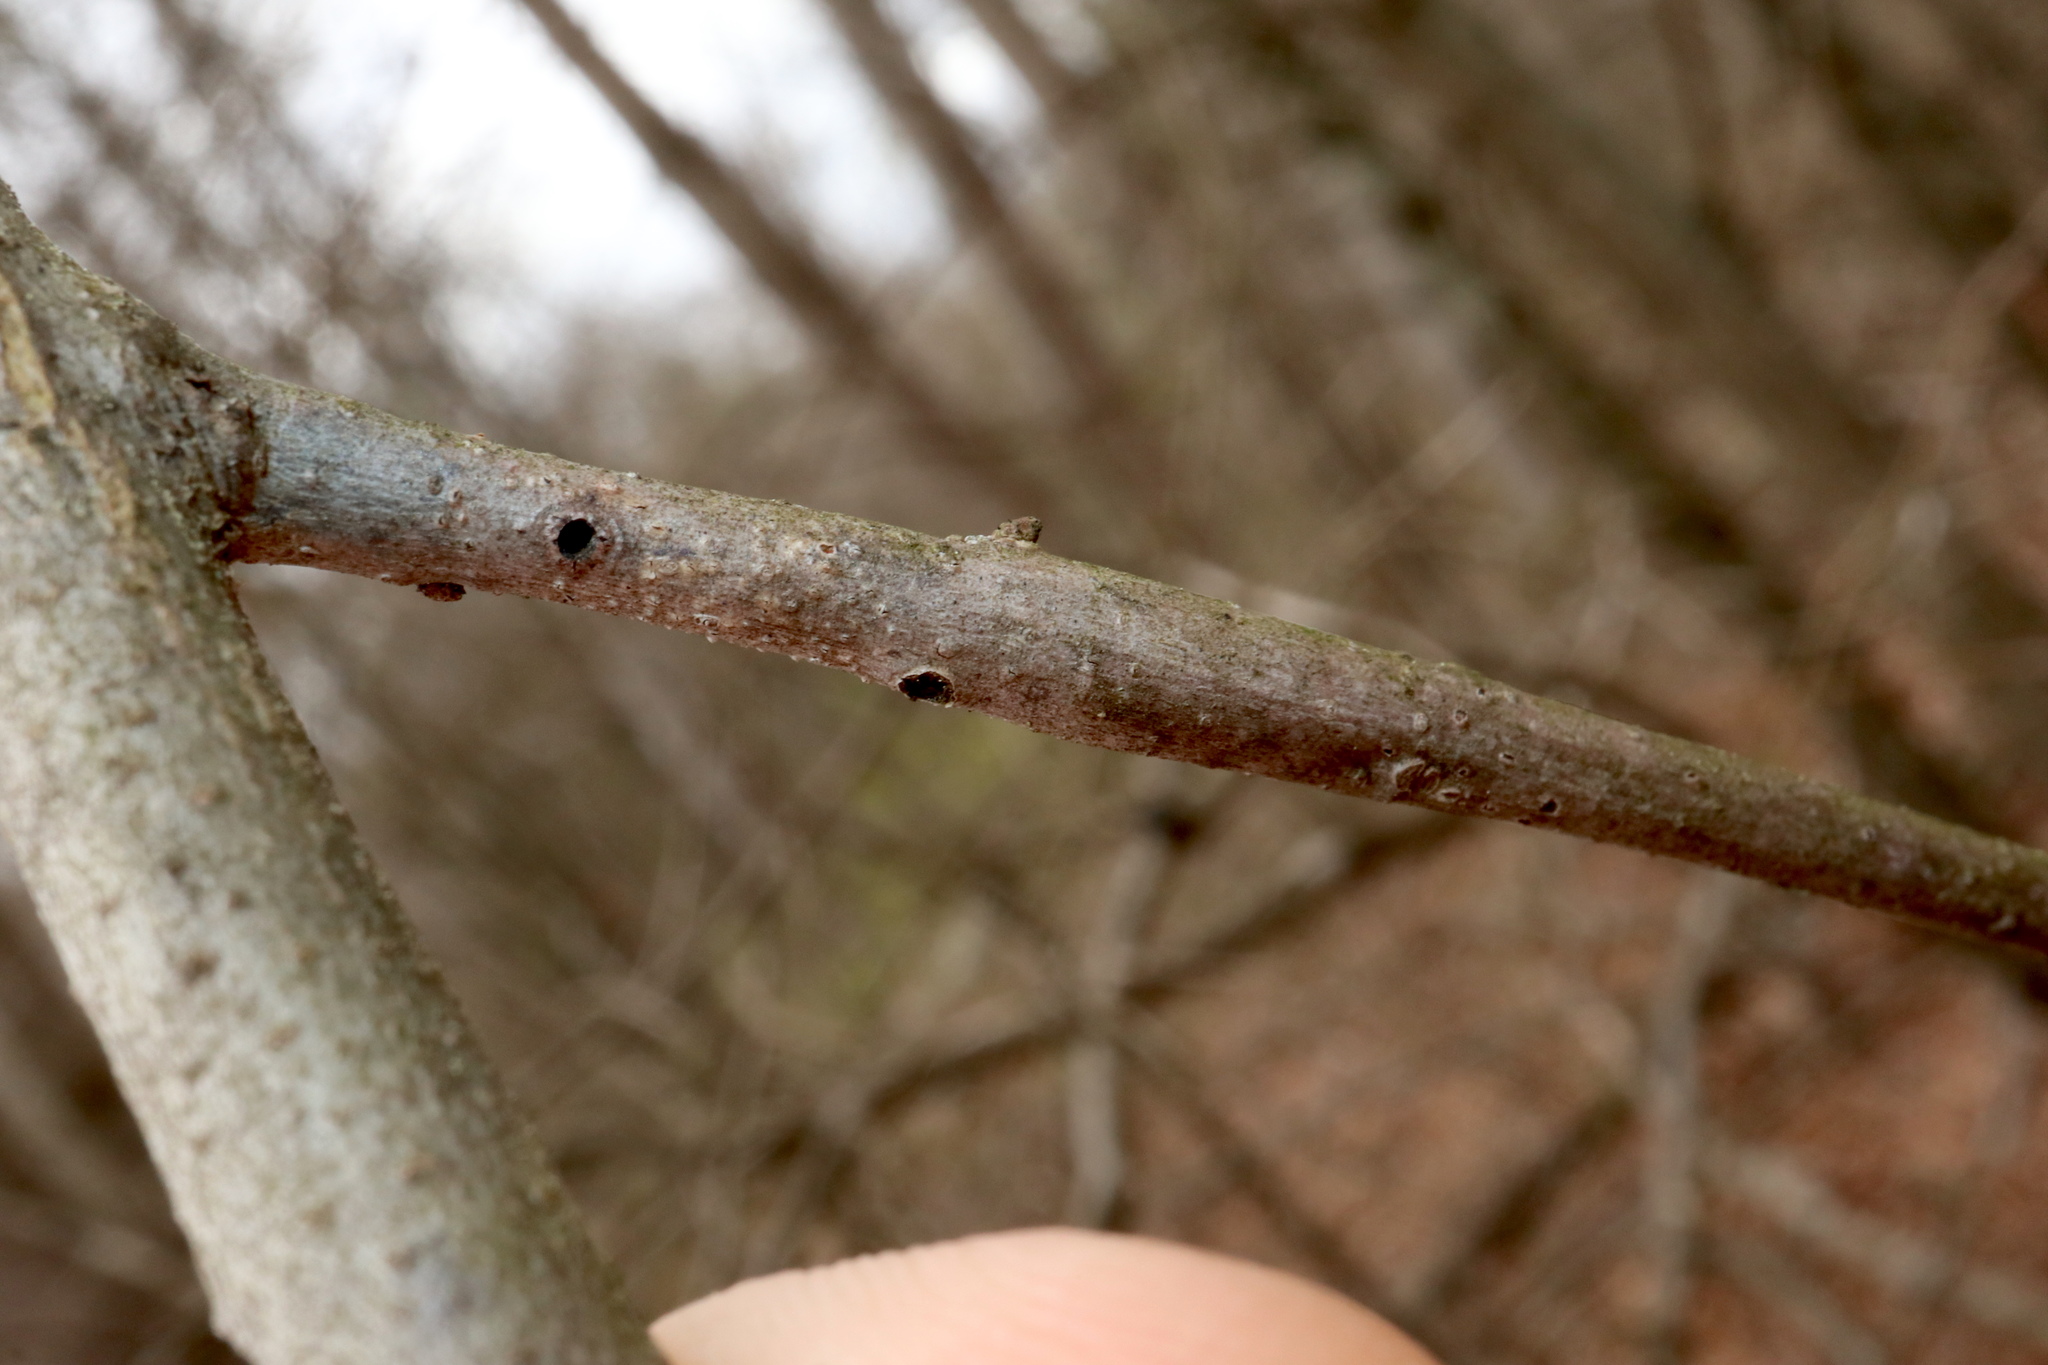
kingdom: Animalia
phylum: Arthropoda
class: Insecta
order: Hymenoptera
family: Cynipidae
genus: Callirhytis
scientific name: Callirhytis
